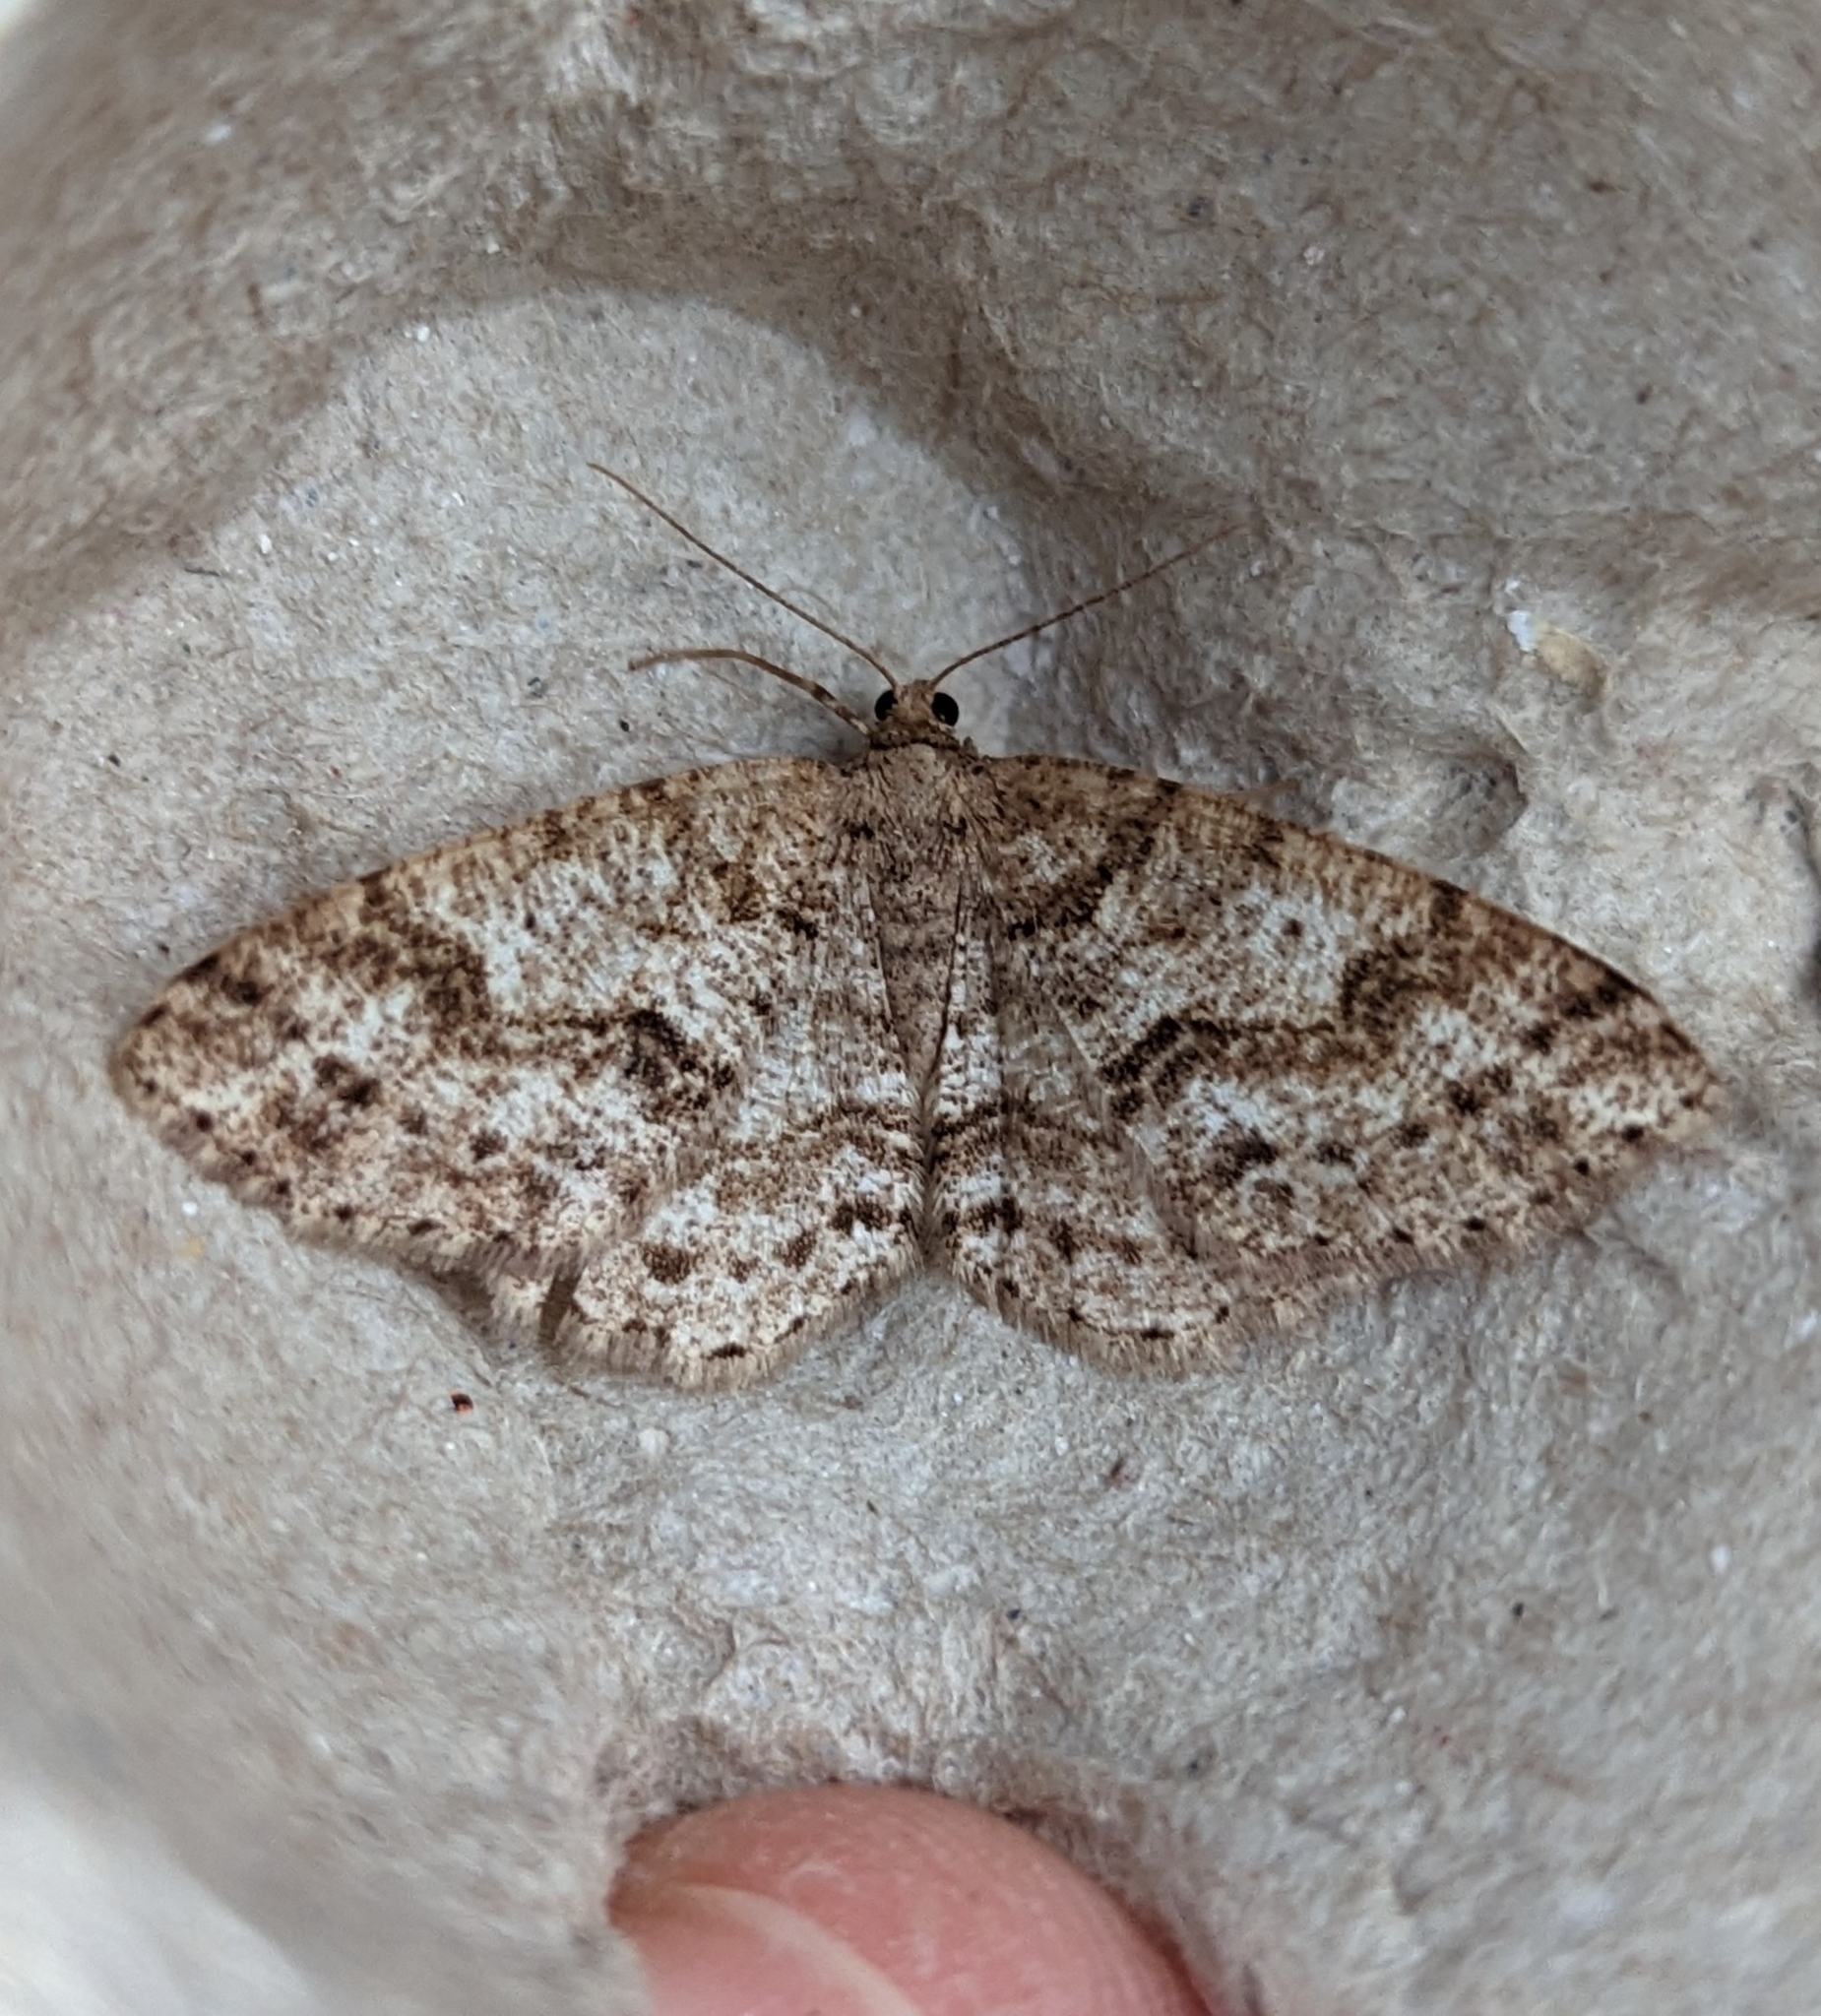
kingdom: Animalia
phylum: Arthropoda
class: Insecta
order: Lepidoptera
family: Geometridae
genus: Melanolophia
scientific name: Melanolophia imitata
